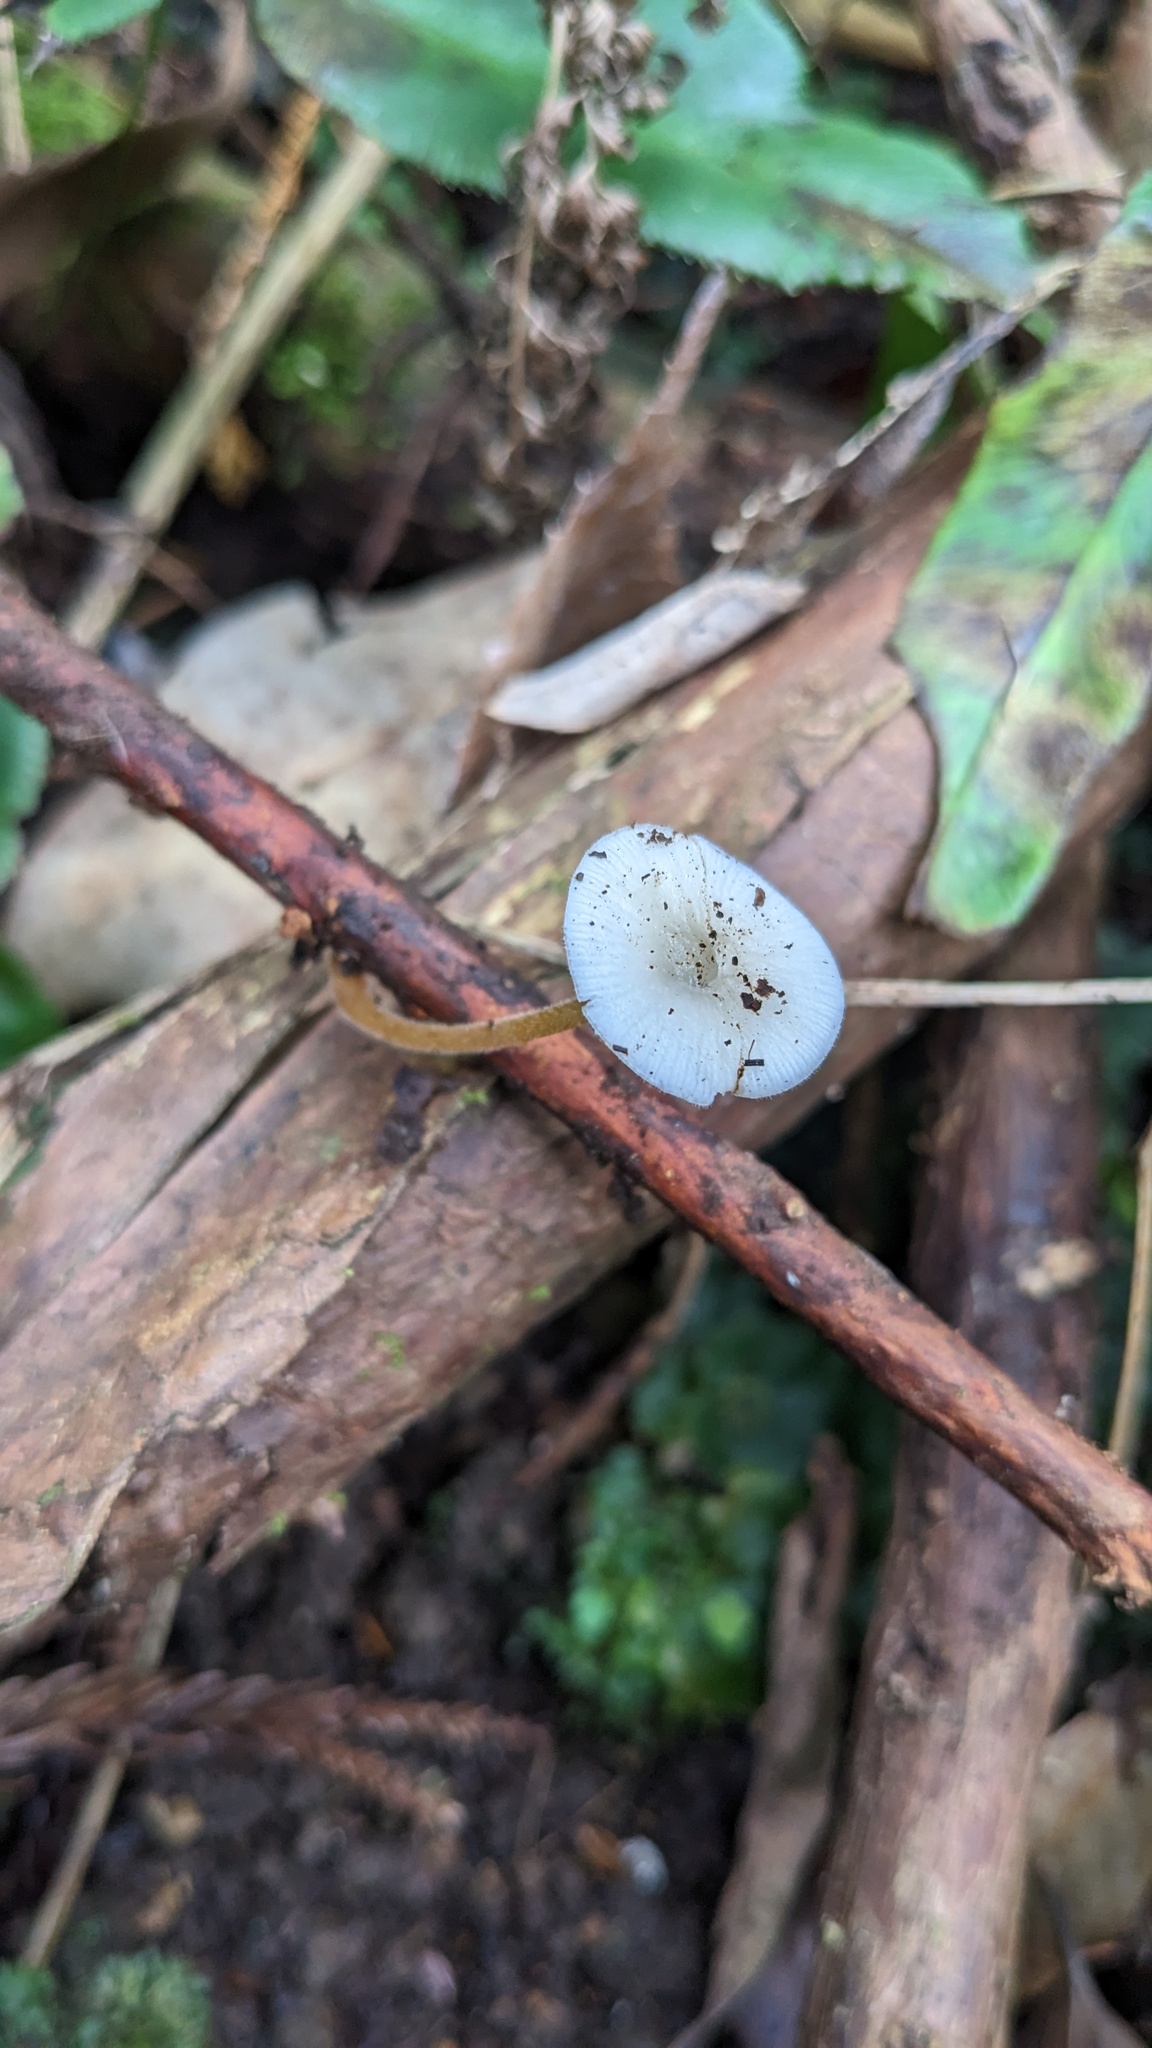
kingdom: Fungi
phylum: Basidiomycota
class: Agaricomycetes
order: Agaricales
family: Physalacriaceae
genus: Strobilurus
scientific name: Strobilurus ohshimae
